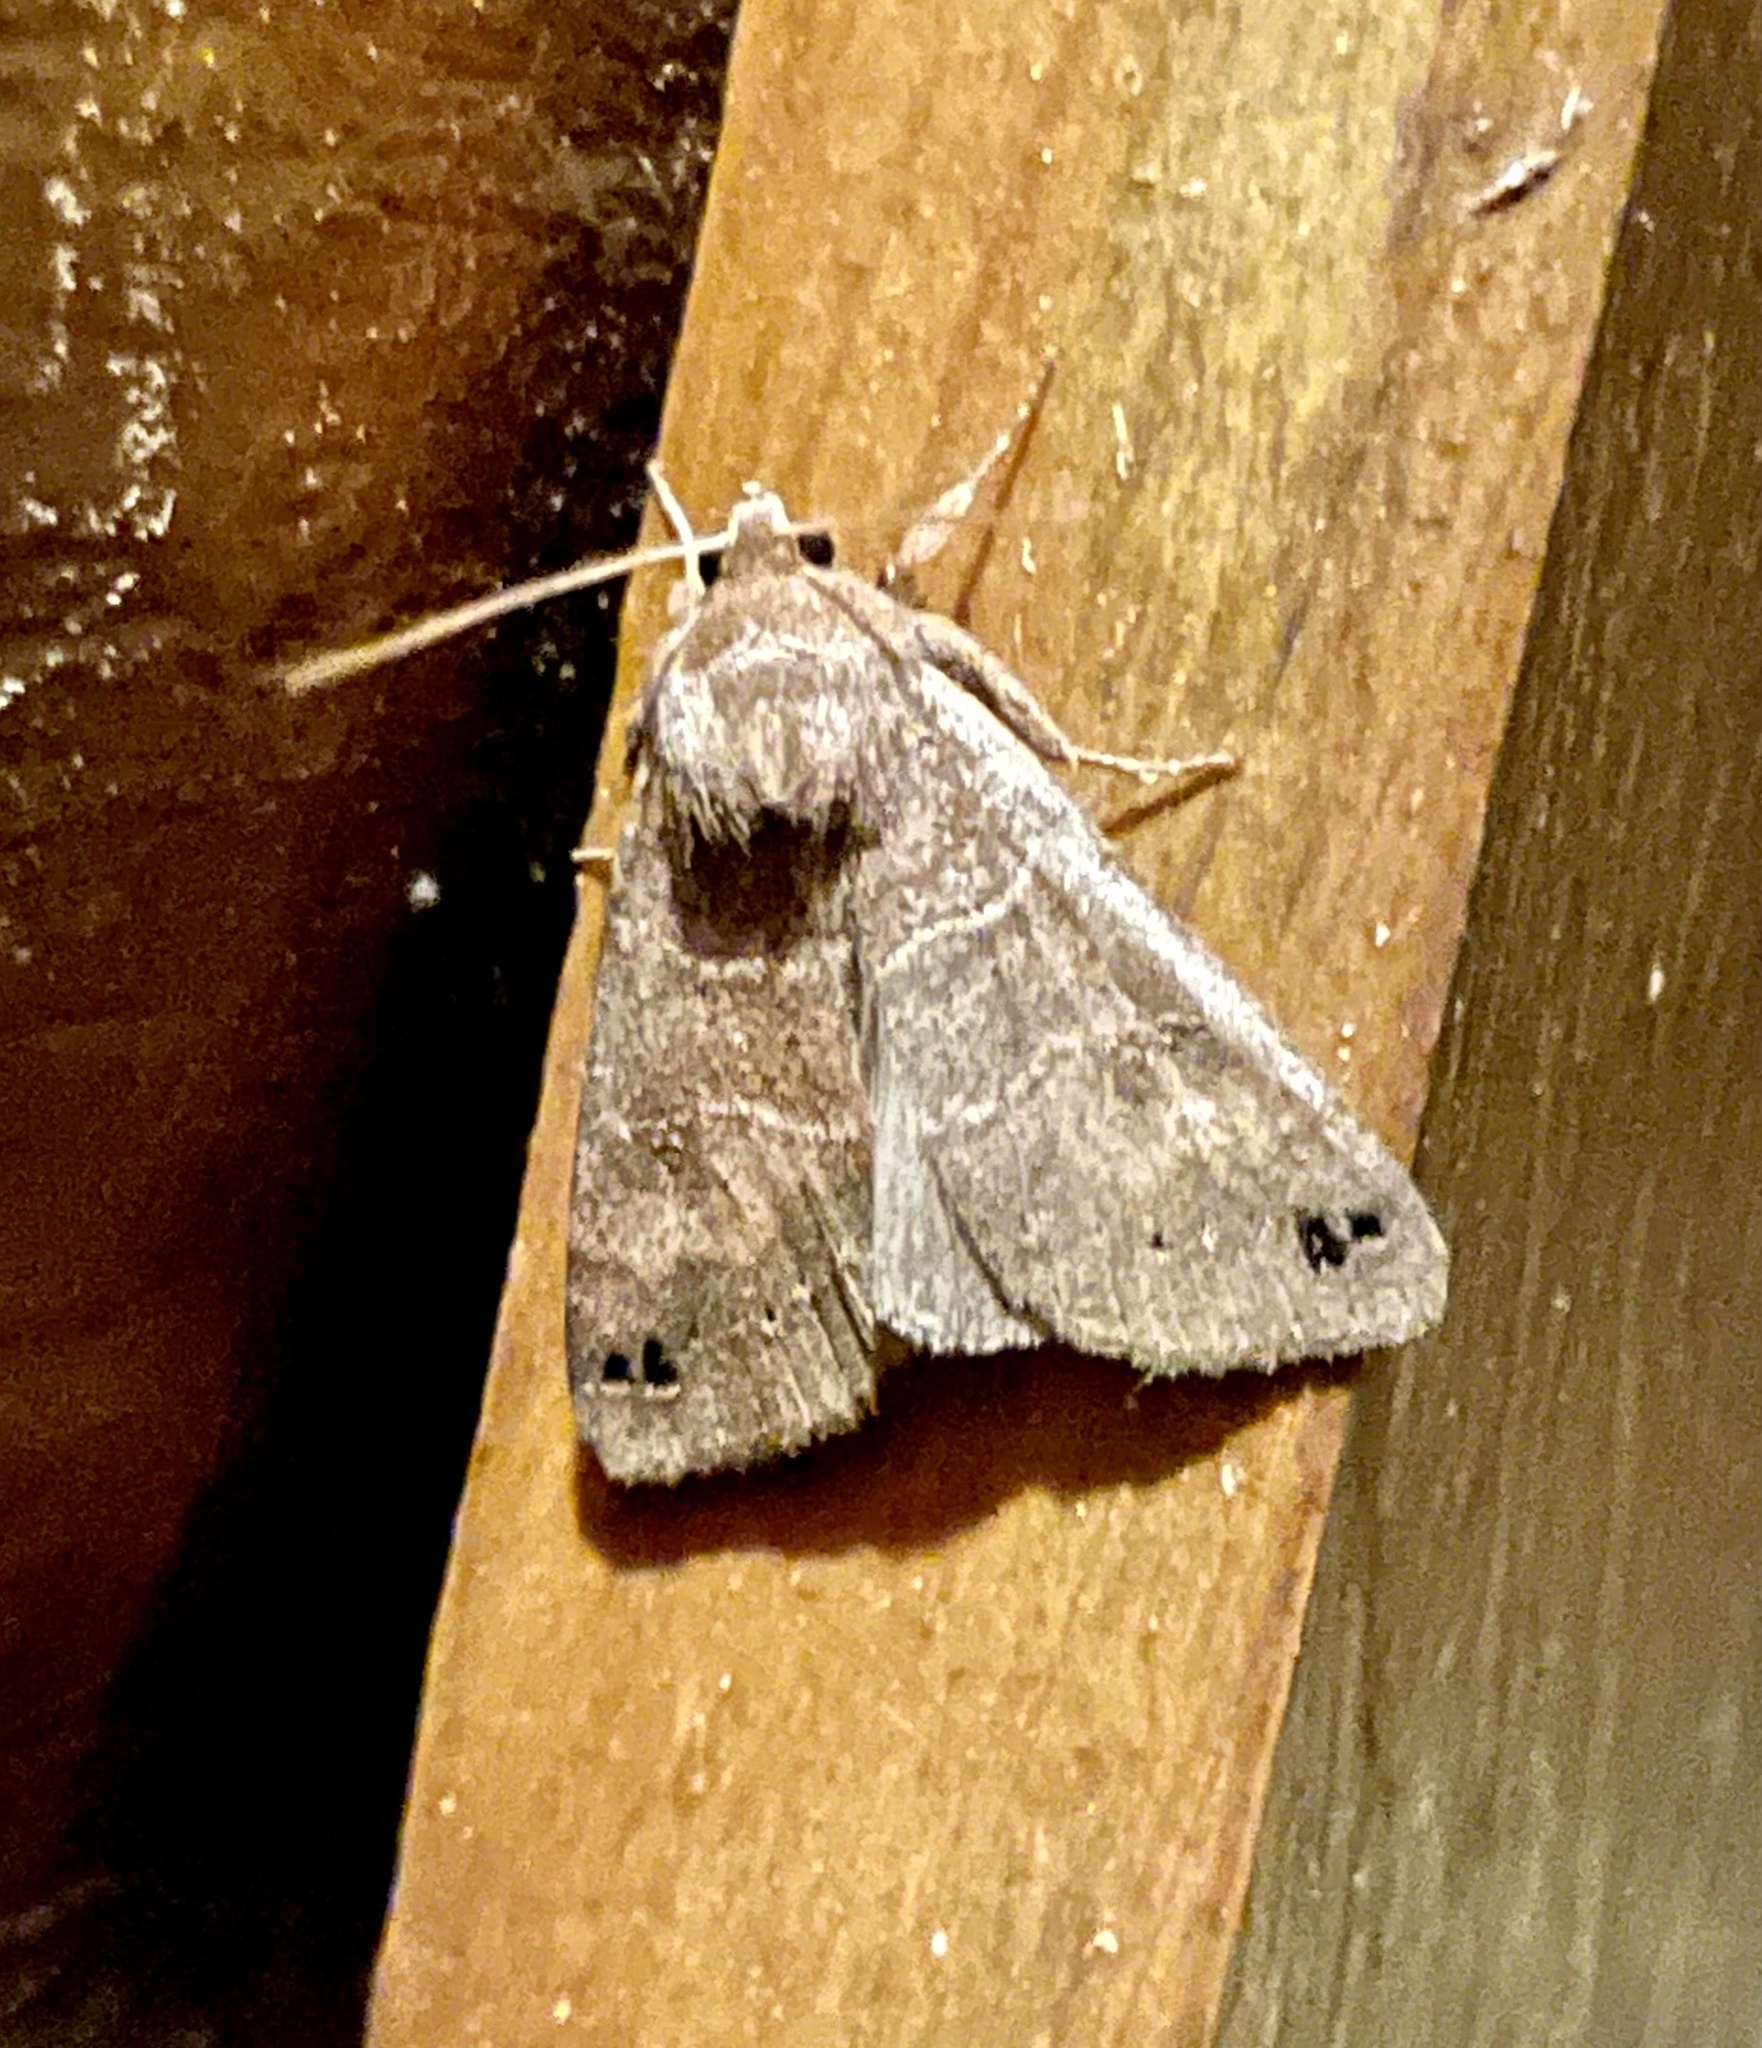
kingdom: Animalia
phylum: Arthropoda
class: Insecta
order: Lepidoptera
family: Erebidae
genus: Cissusa
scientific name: Cissusa spadix
